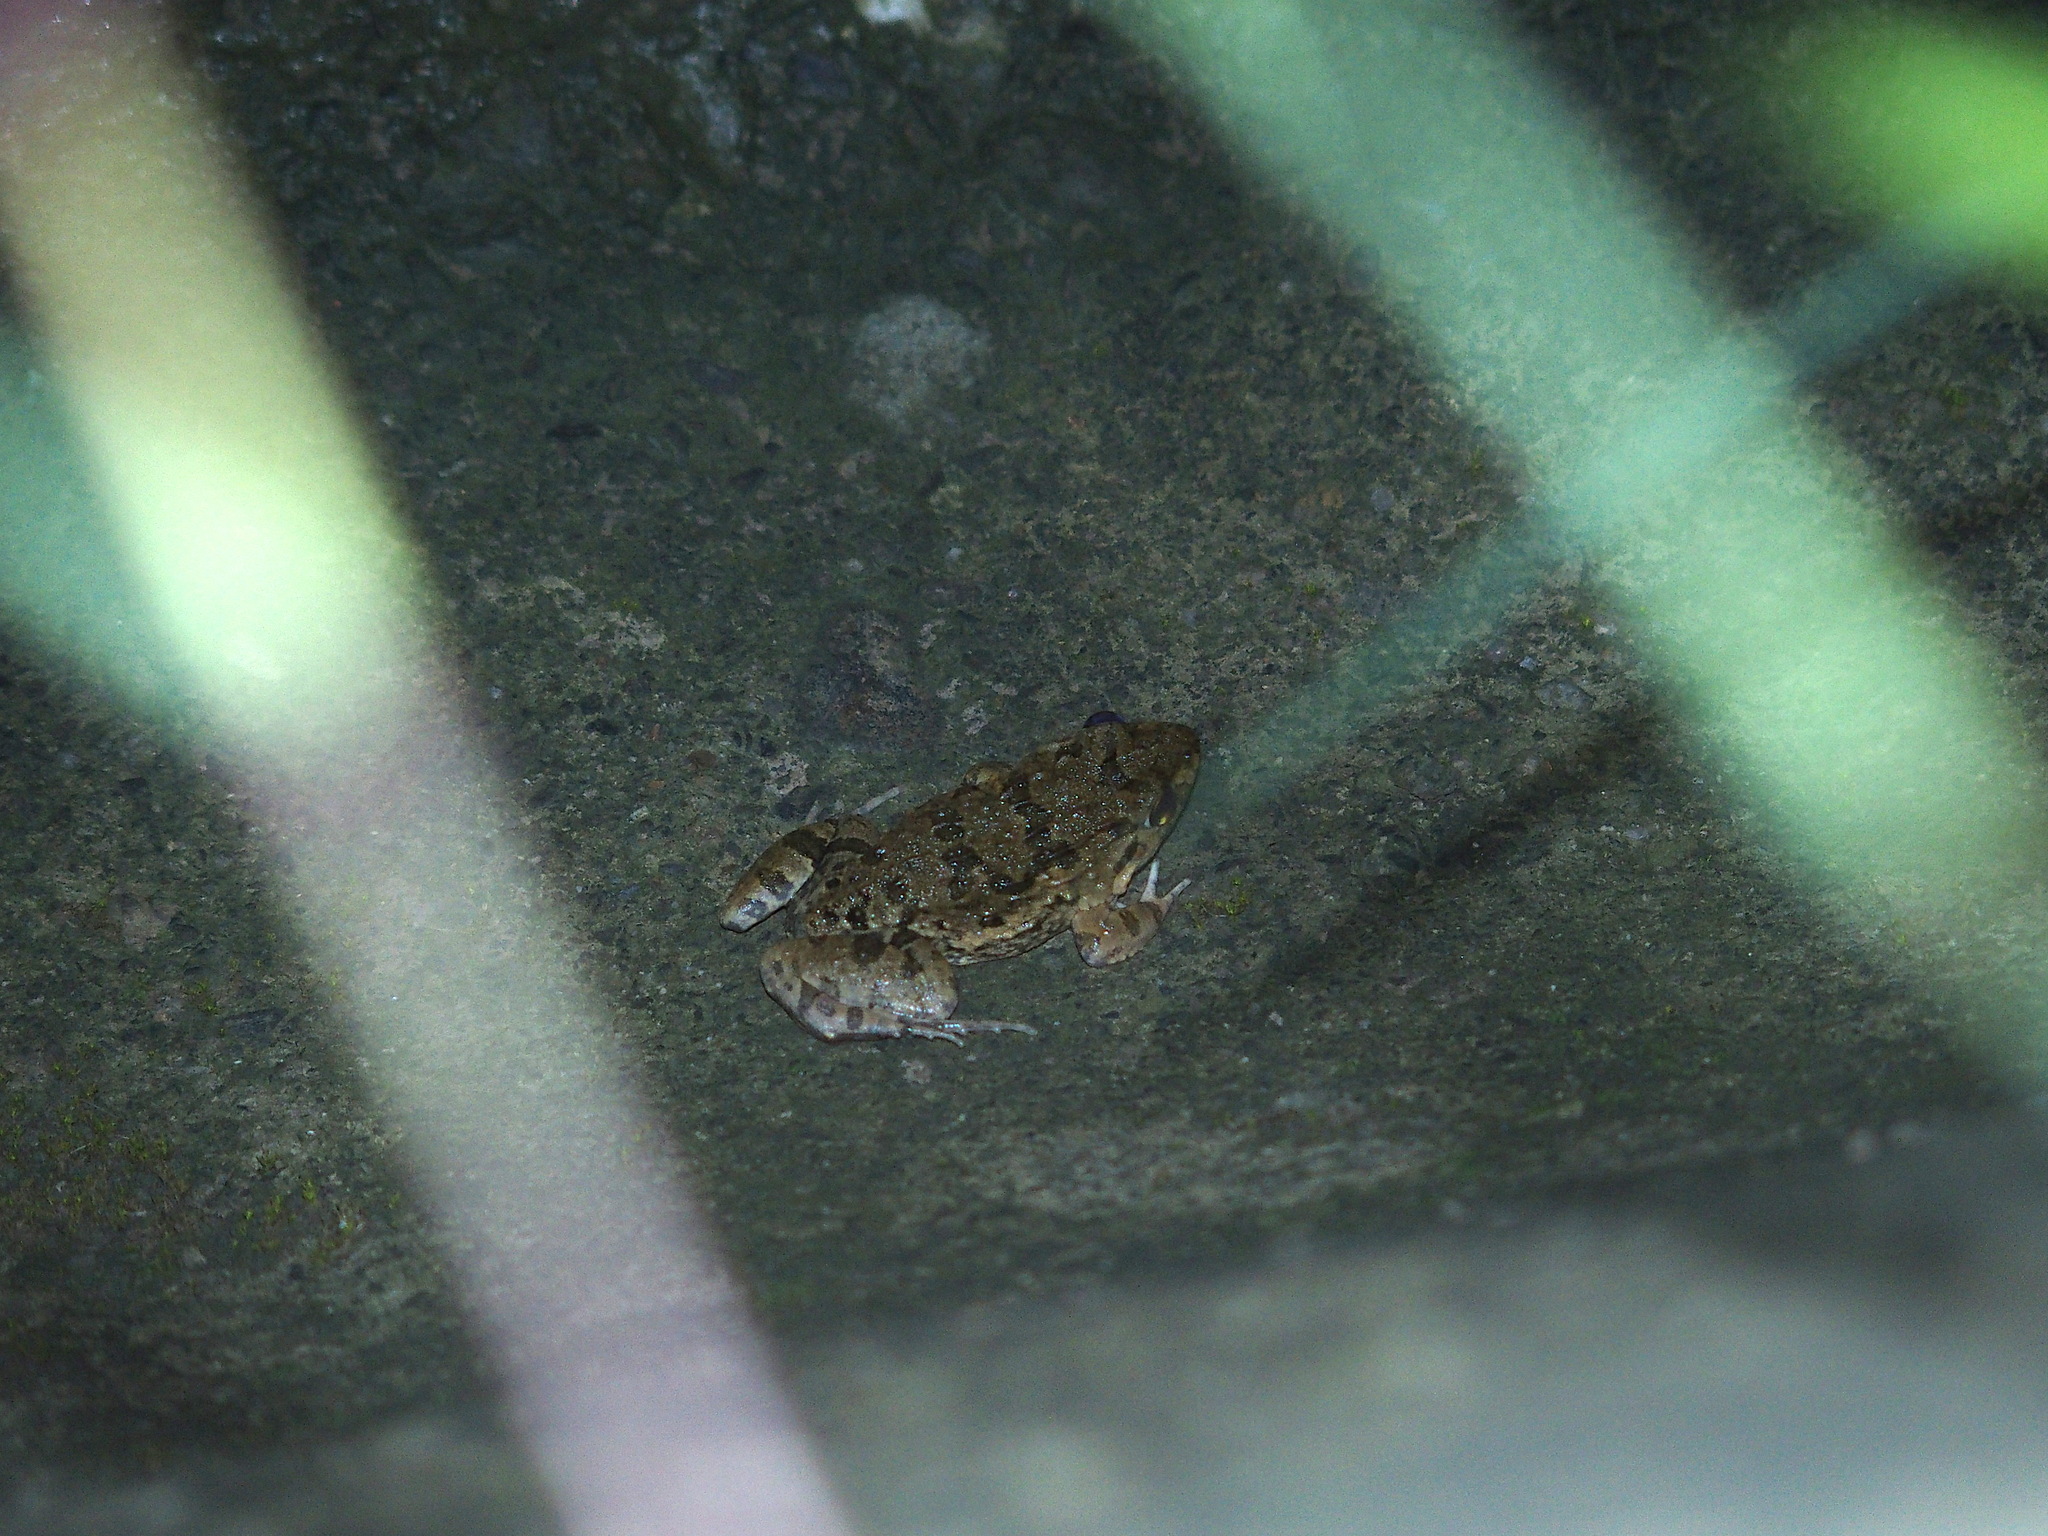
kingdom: Animalia
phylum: Chordata
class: Amphibia
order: Anura
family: Dicroglossidae
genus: Fejervarya
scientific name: Fejervarya limnocharis
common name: Asian grass frog/common pond frog/field frog/grass frog/indian rice frog
